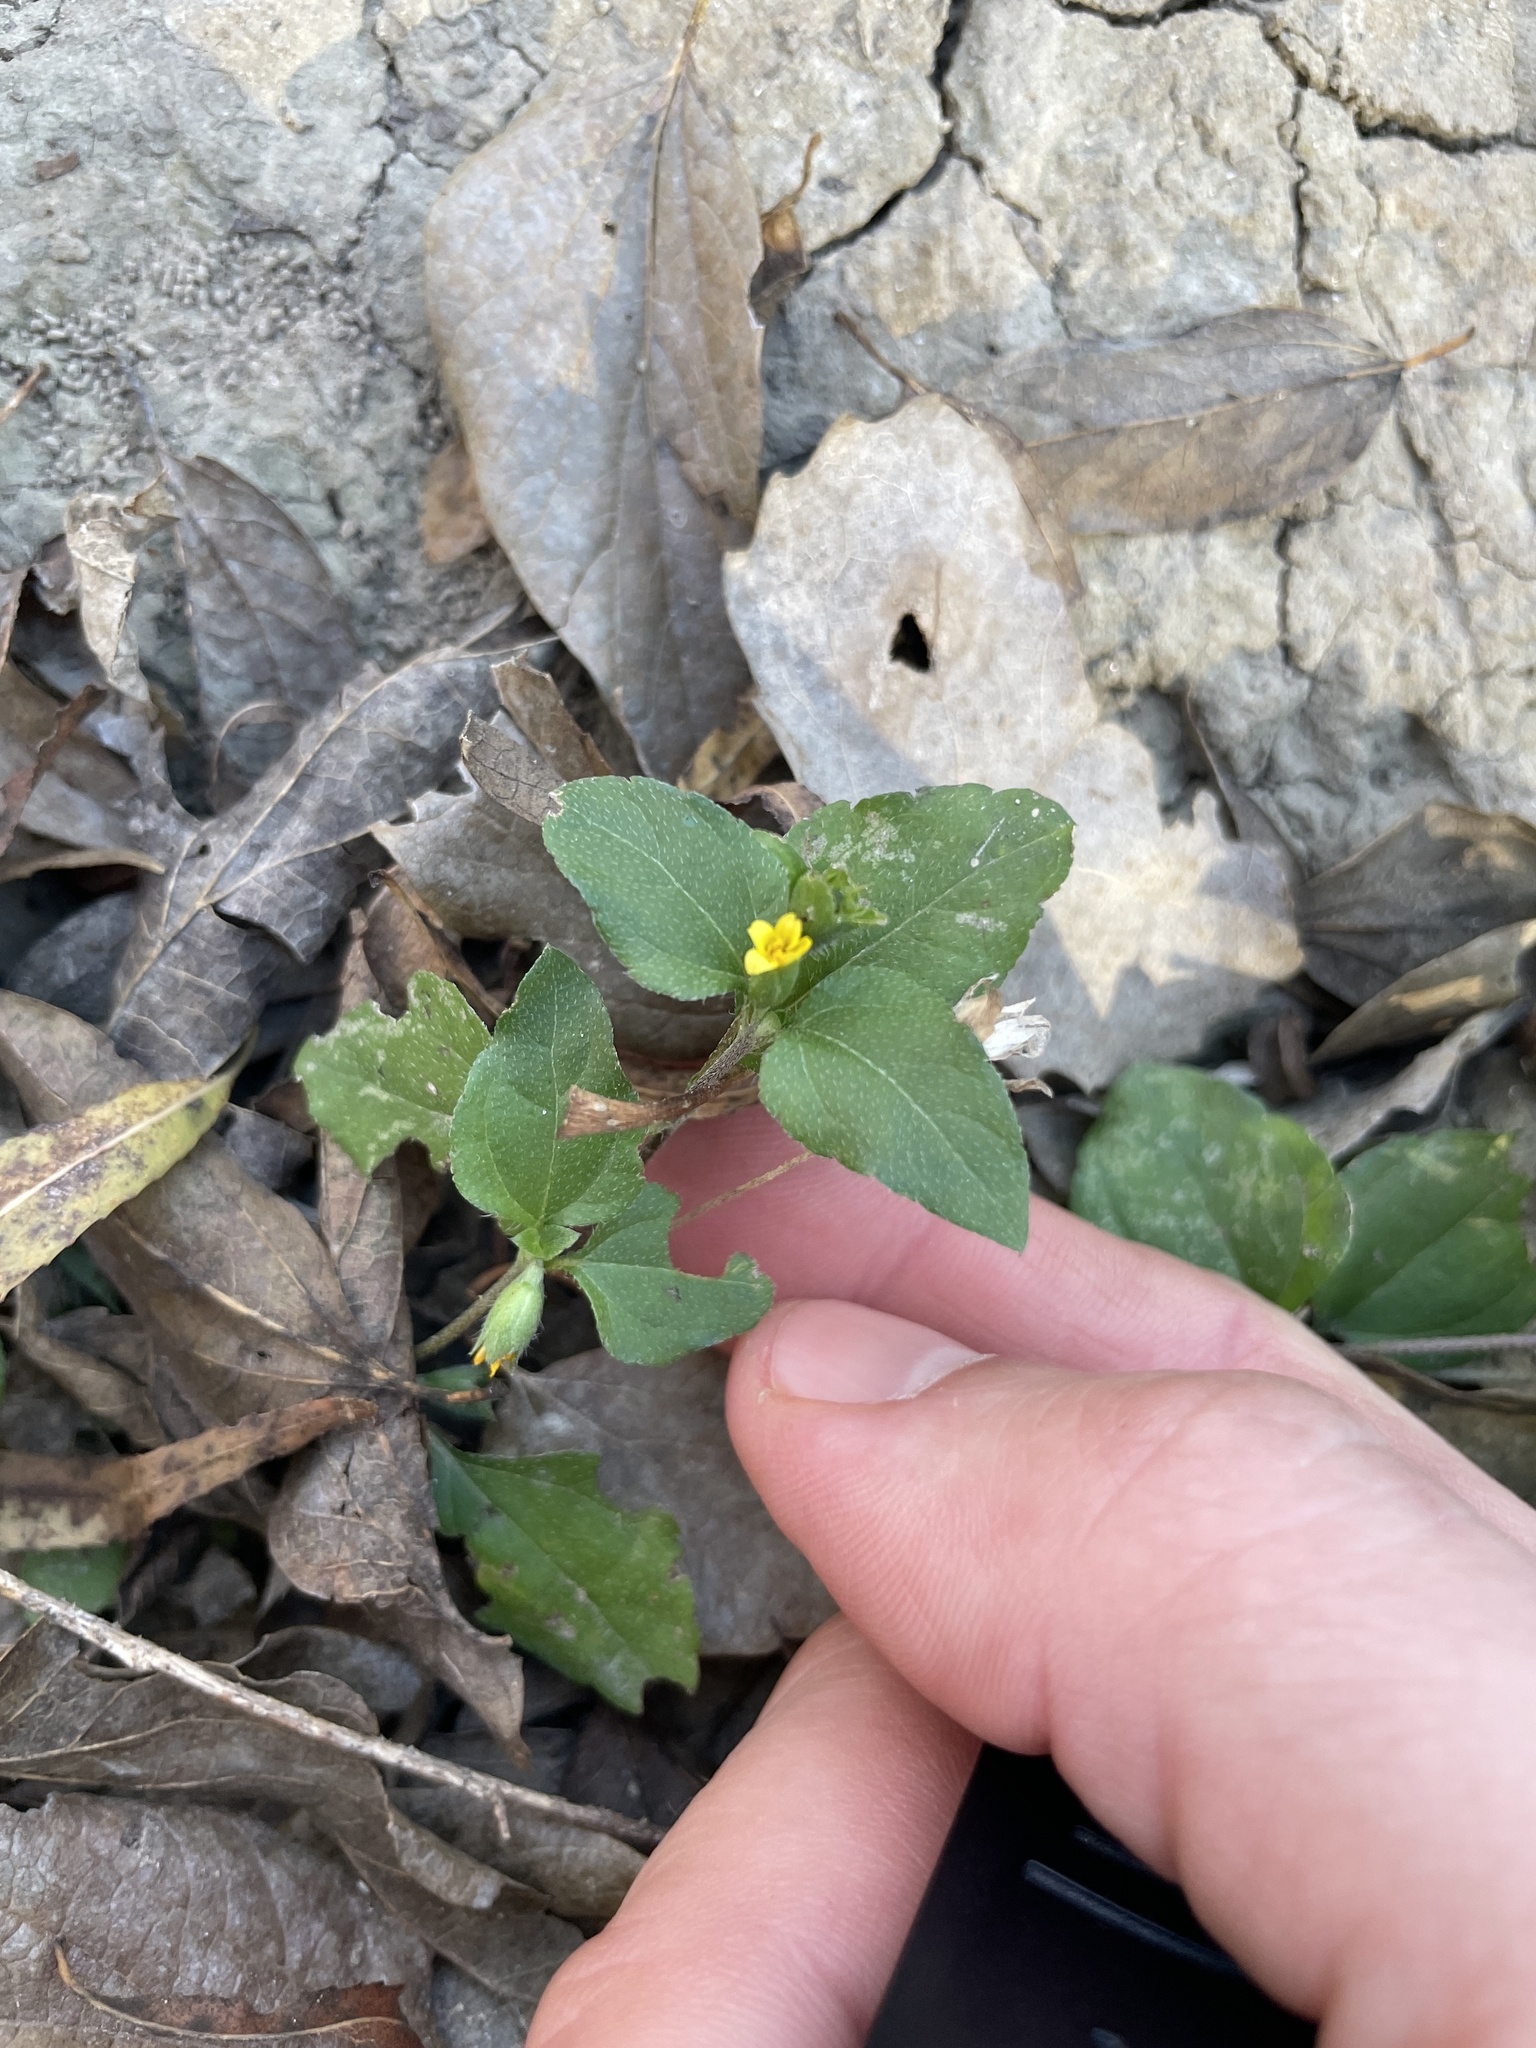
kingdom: Plantae
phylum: Tracheophyta
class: Magnoliopsida
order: Asterales
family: Asteraceae
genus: Calyptocarpus
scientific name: Calyptocarpus vialis
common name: Straggler daisy
